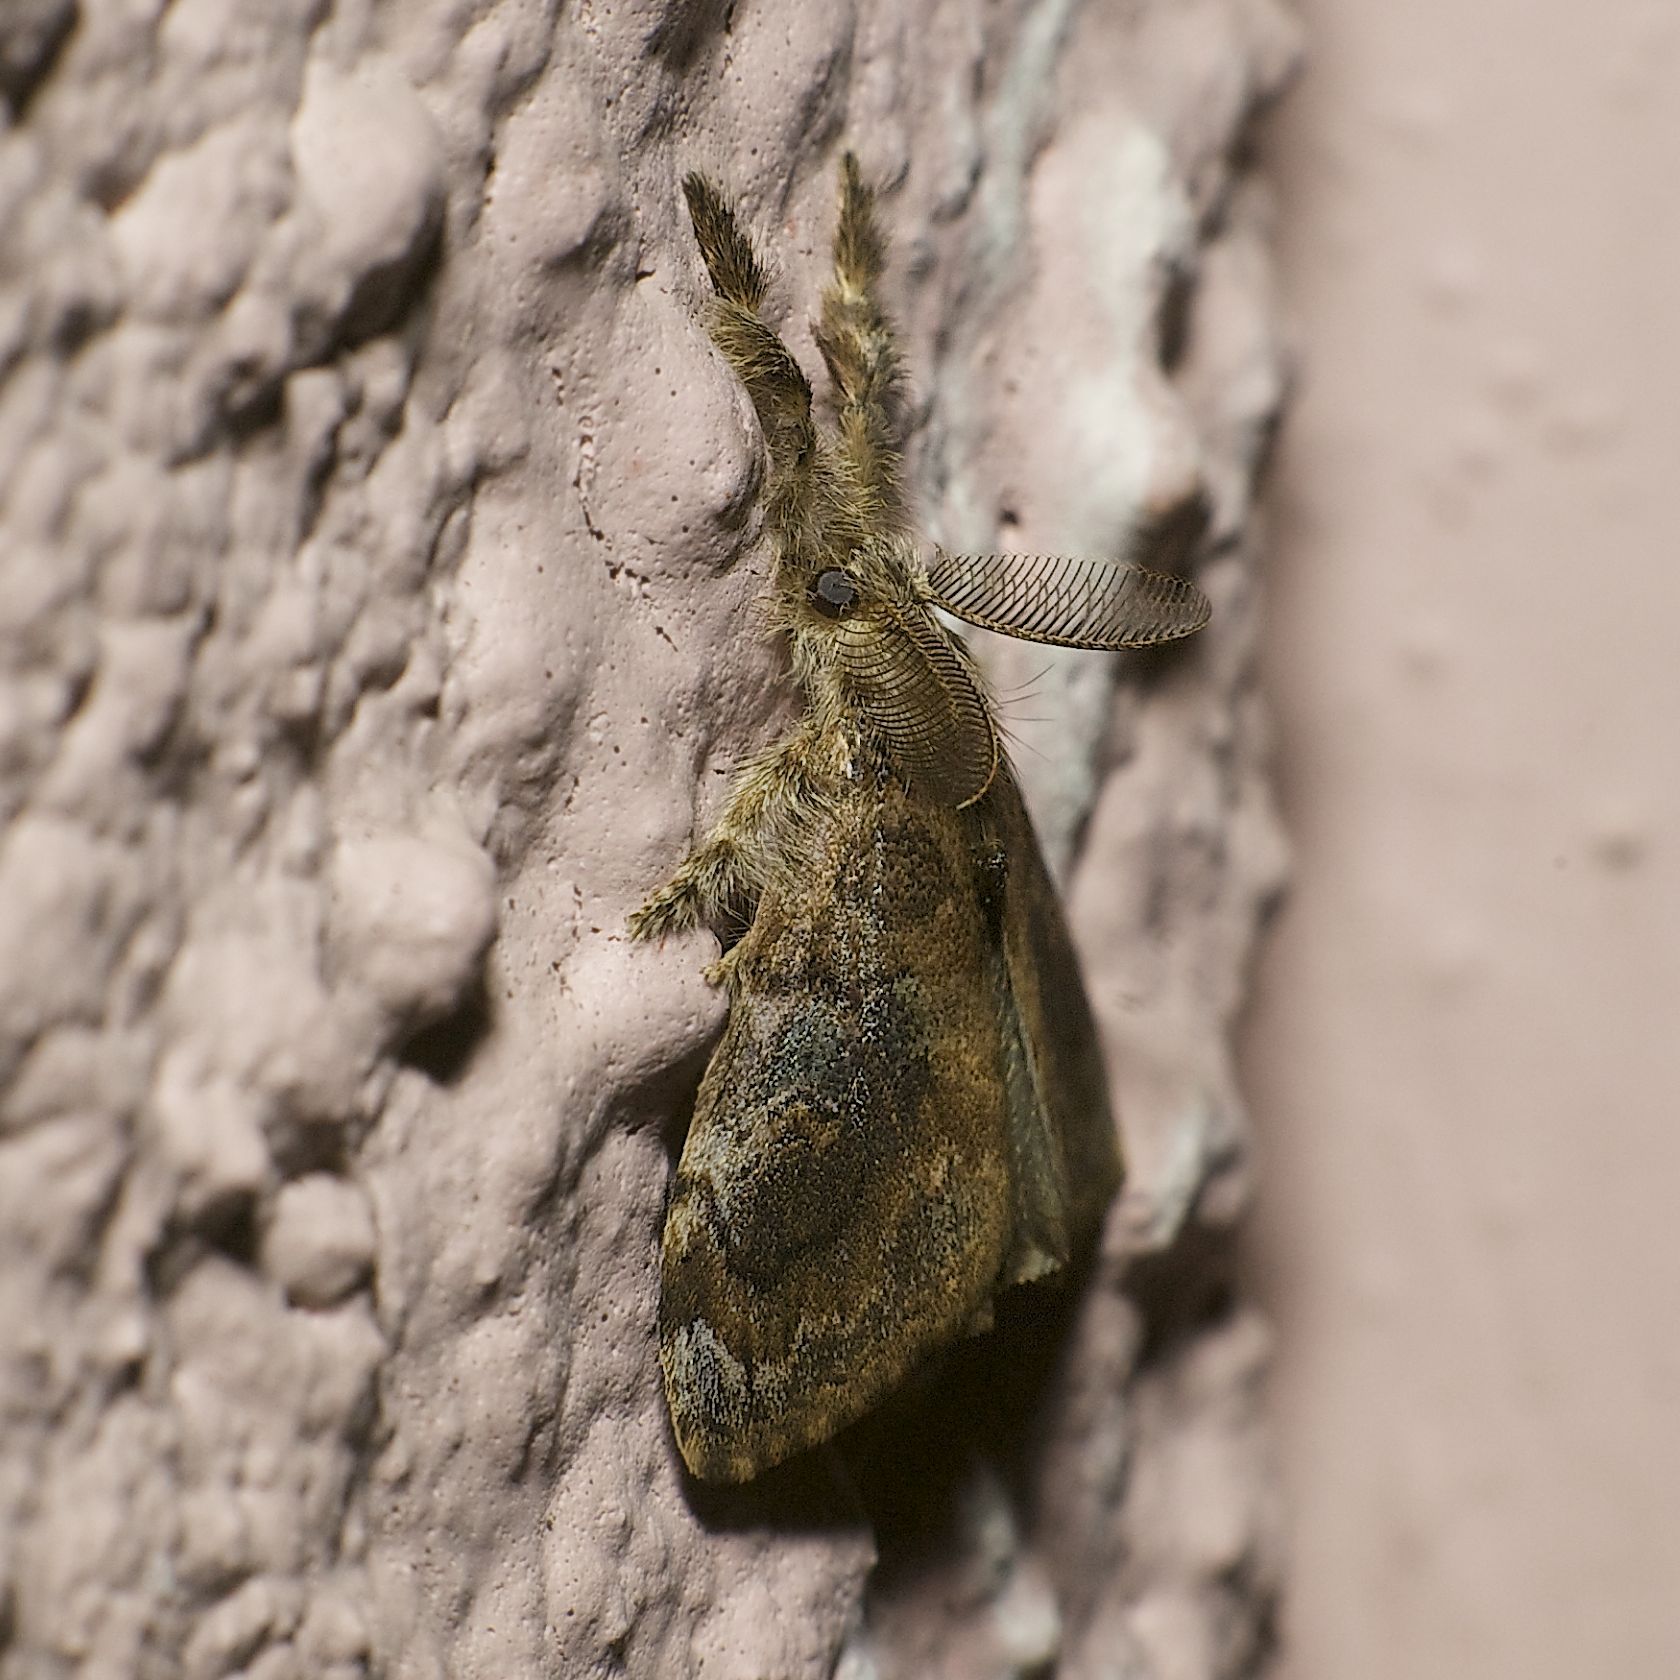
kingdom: Animalia
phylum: Arthropoda
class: Insecta
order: Lepidoptera
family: Erebidae
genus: Orgyia
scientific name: Orgyia postica
